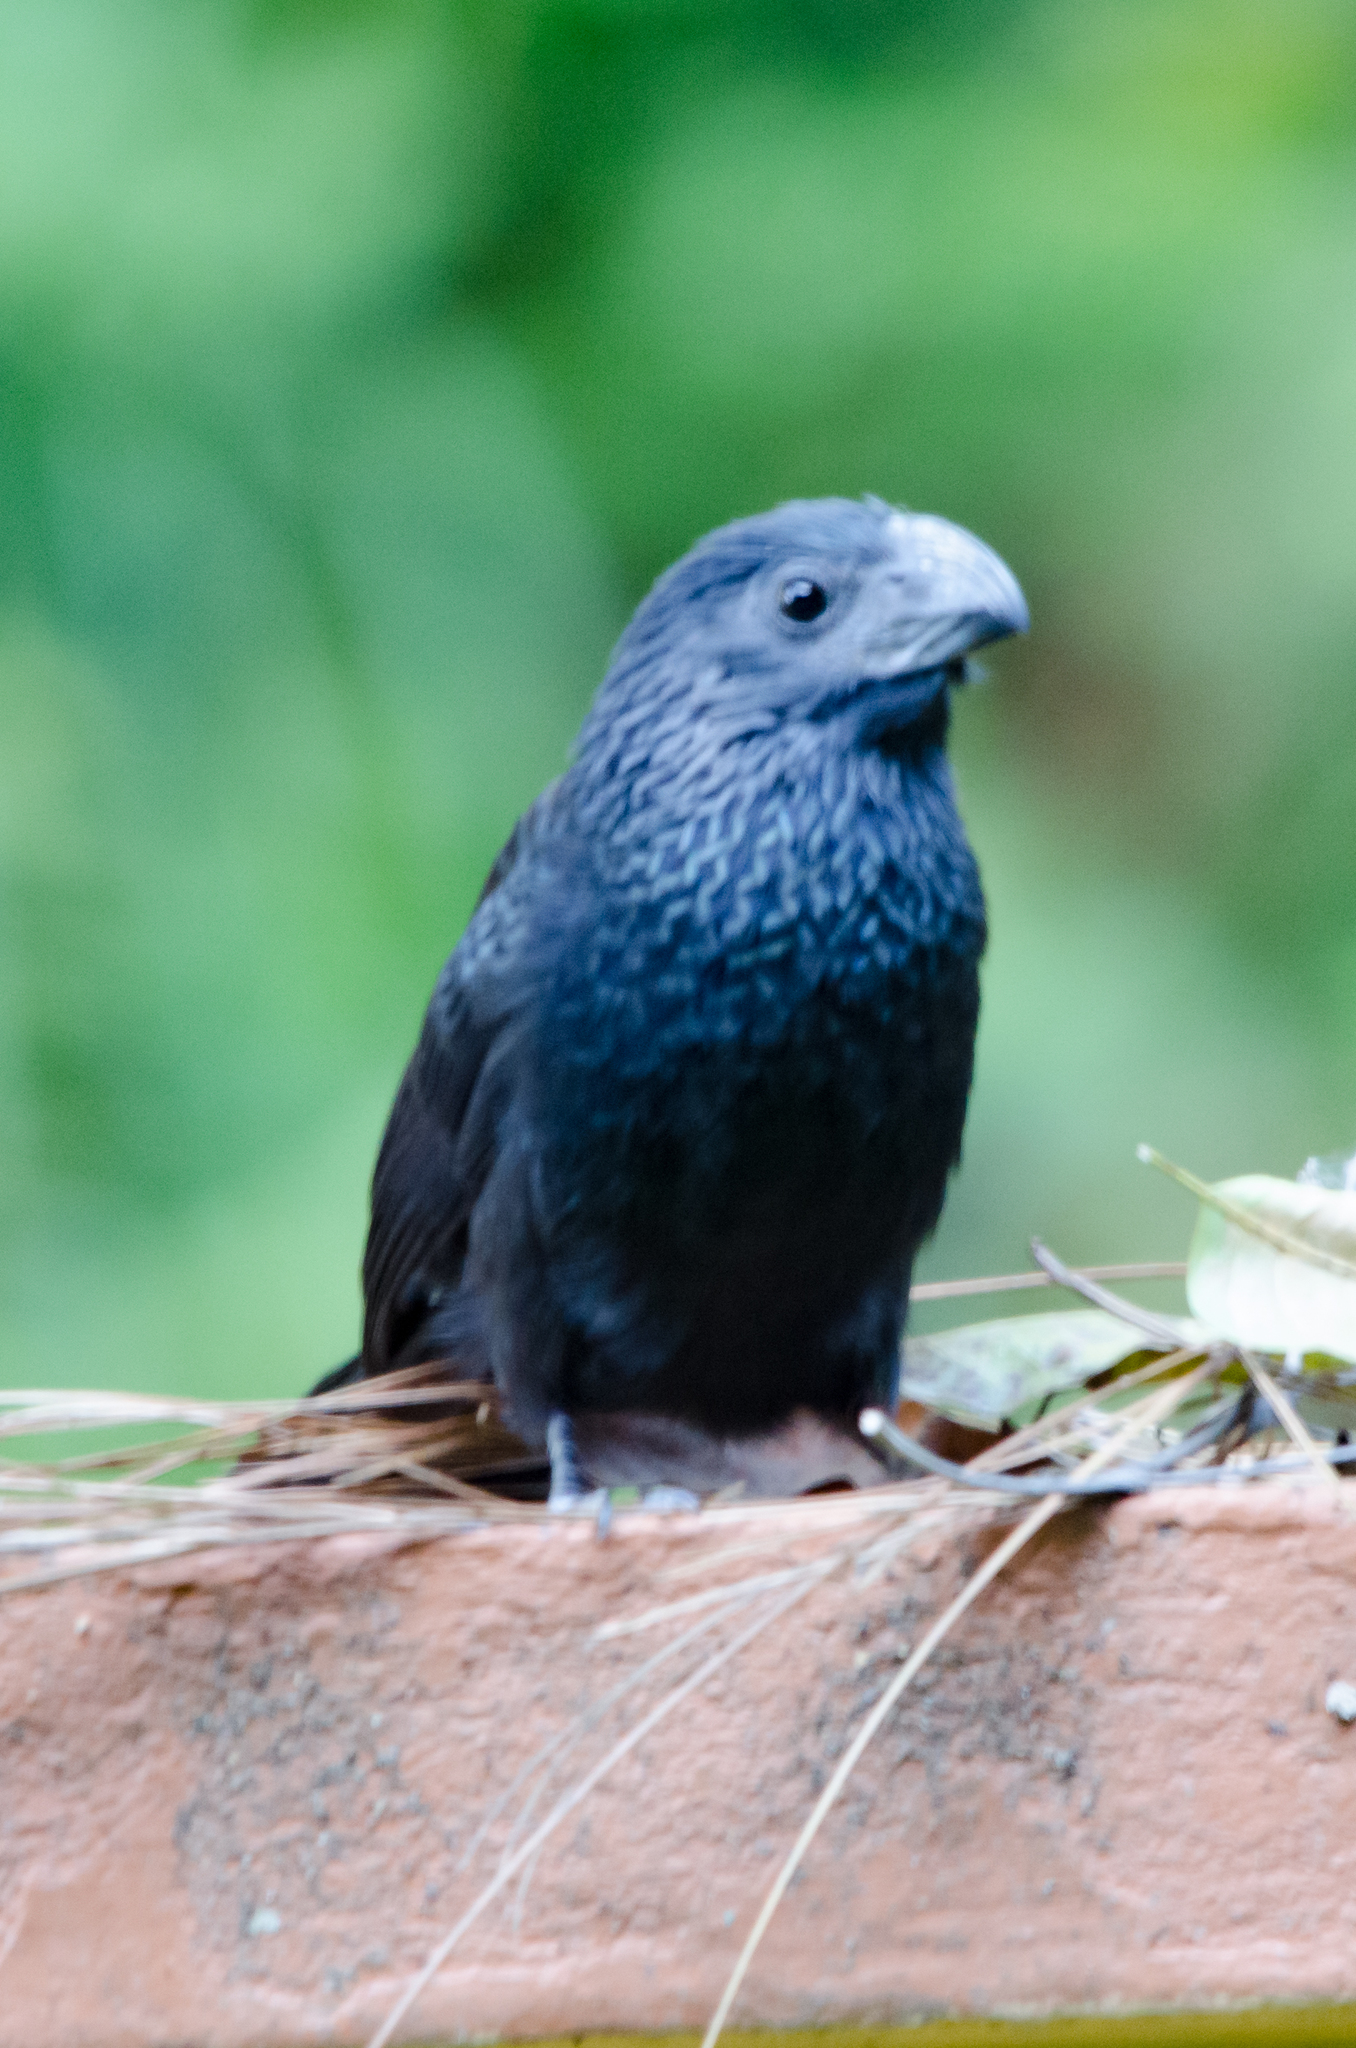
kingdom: Animalia
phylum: Chordata
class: Aves
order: Cuculiformes
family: Cuculidae
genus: Crotophaga
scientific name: Crotophaga sulcirostris
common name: Groove-billed ani
